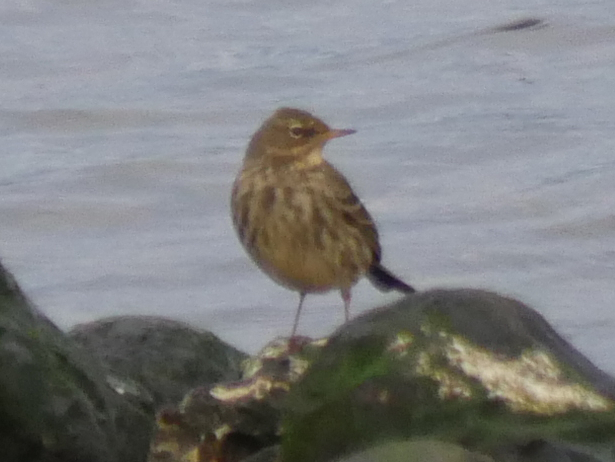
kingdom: Animalia
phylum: Chordata
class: Aves
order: Passeriformes
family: Motacillidae
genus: Anthus
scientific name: Anthus petrosus
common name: Eurasian rock pipit
